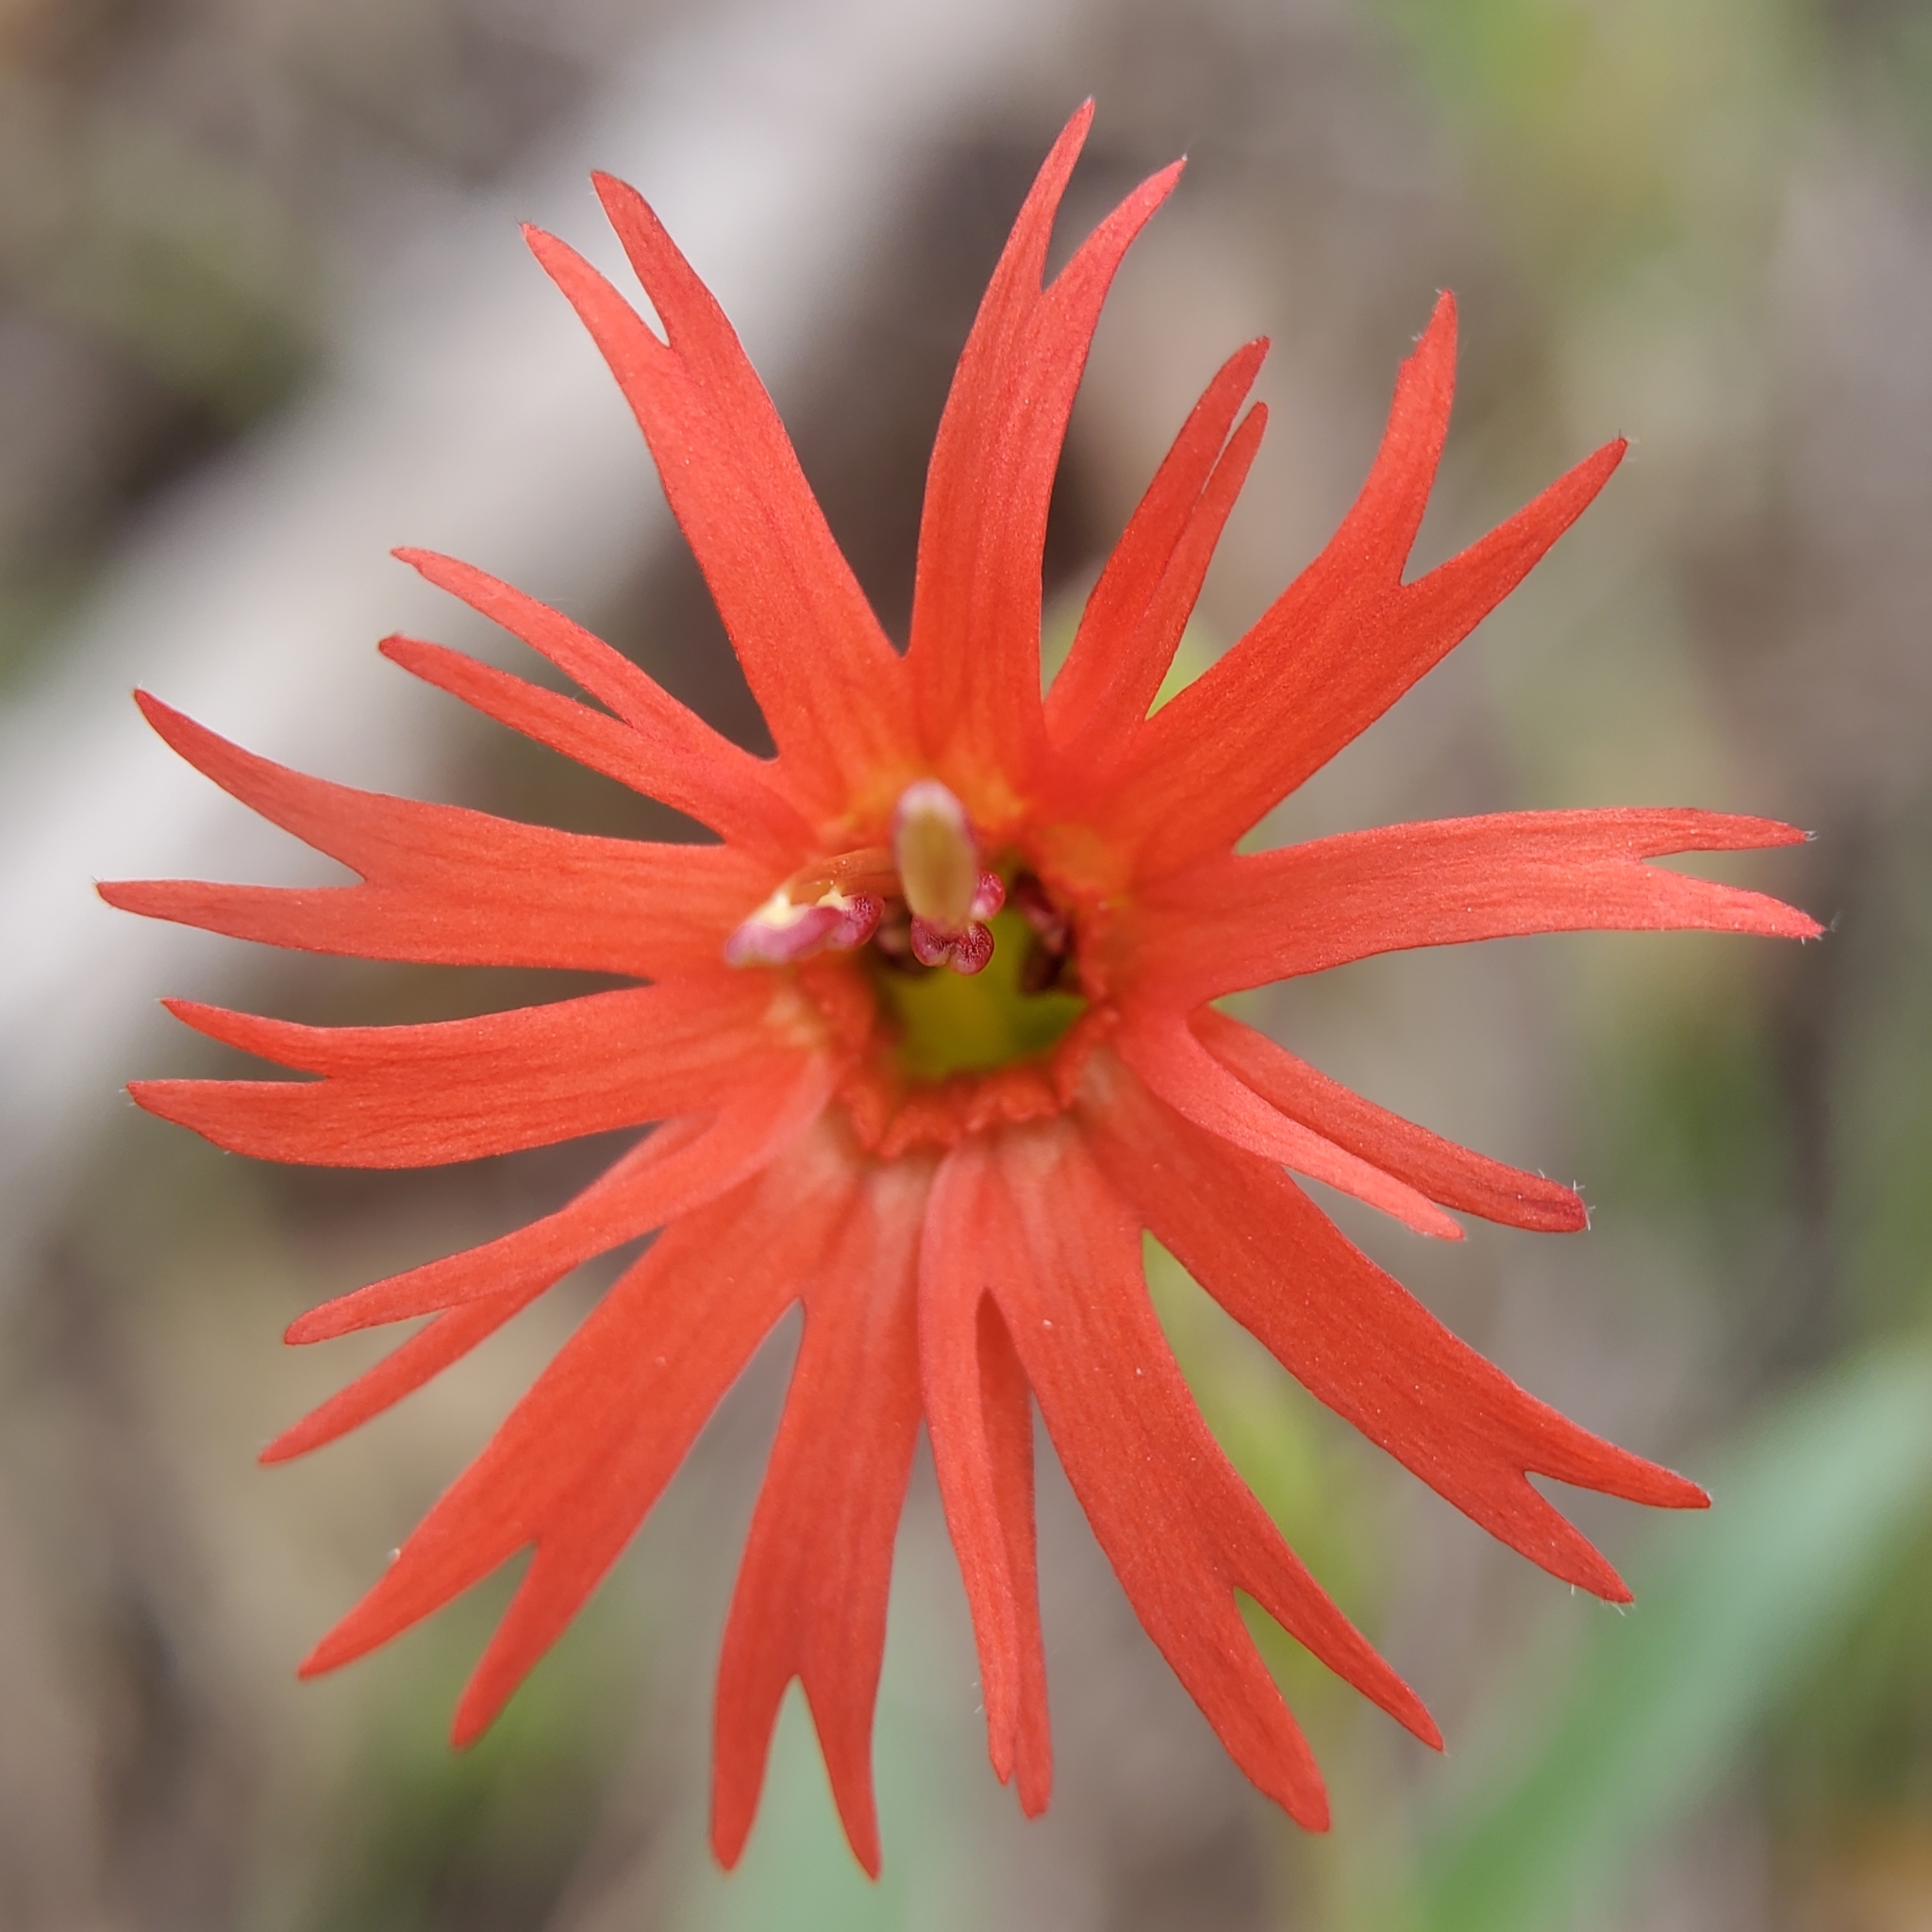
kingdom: Plantae
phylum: Tracheophyta
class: Magnoliopsida
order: Caryophyllales
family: Caryophyllaceae
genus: Silene
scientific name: Silene laciniata
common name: Indian-pink
